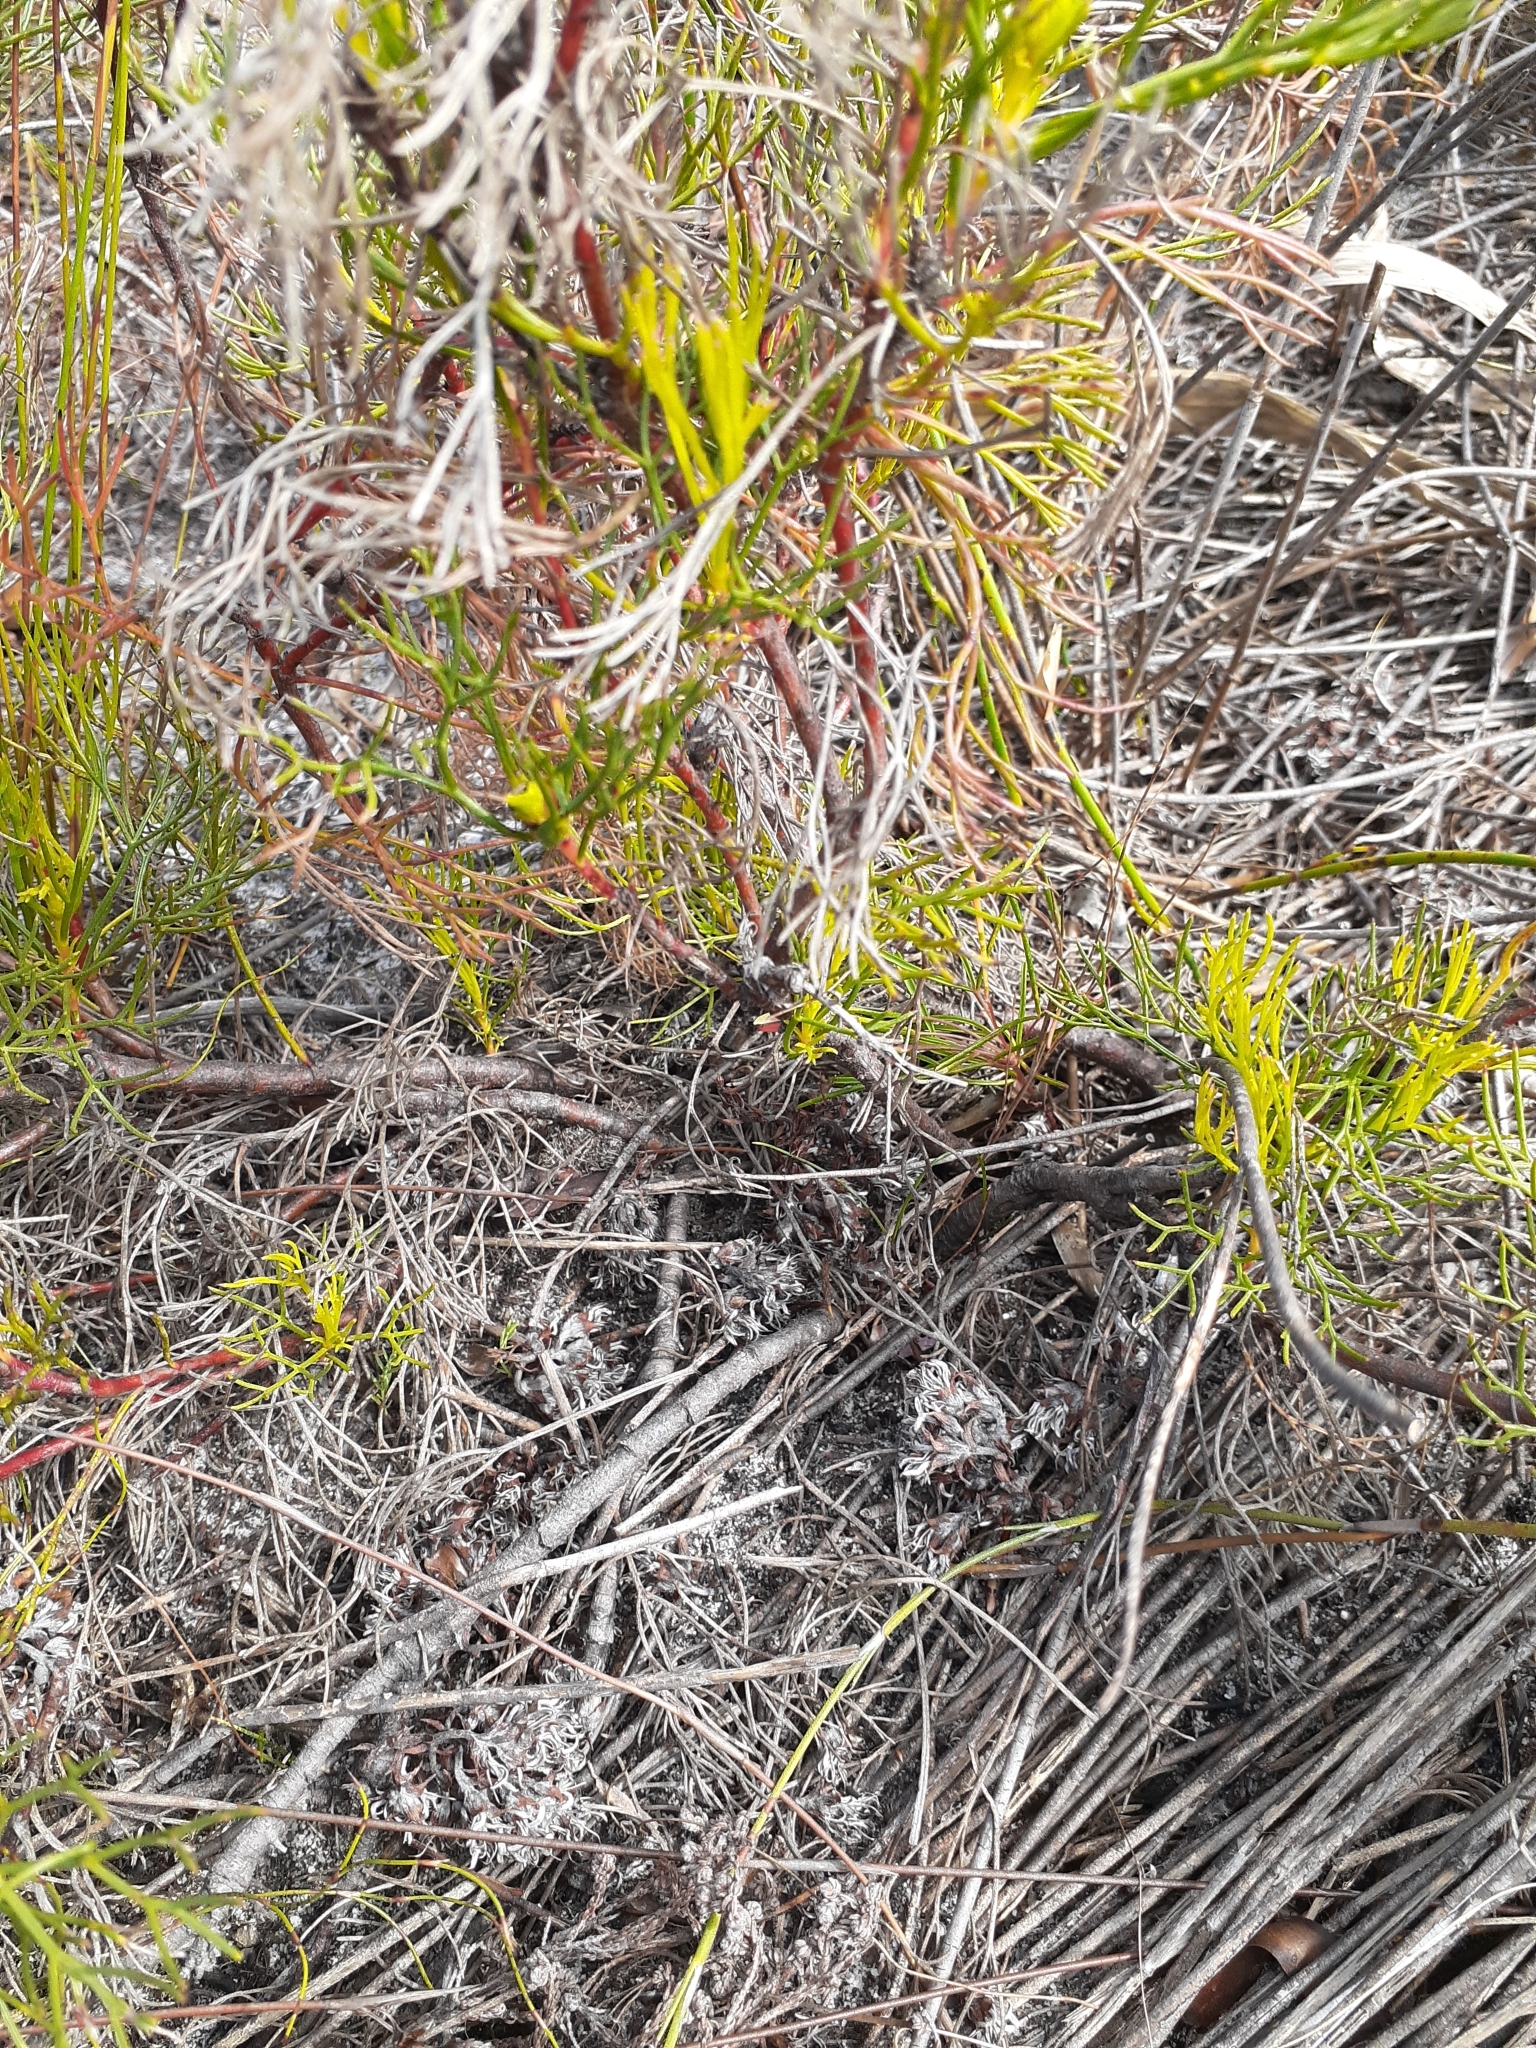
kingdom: Plantae
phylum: Tracheophyta
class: Magnoliopsida
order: Proteales
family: Proteaceae
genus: Serruria
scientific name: Serruria rubricaulis
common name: Red-stem spiderhead
